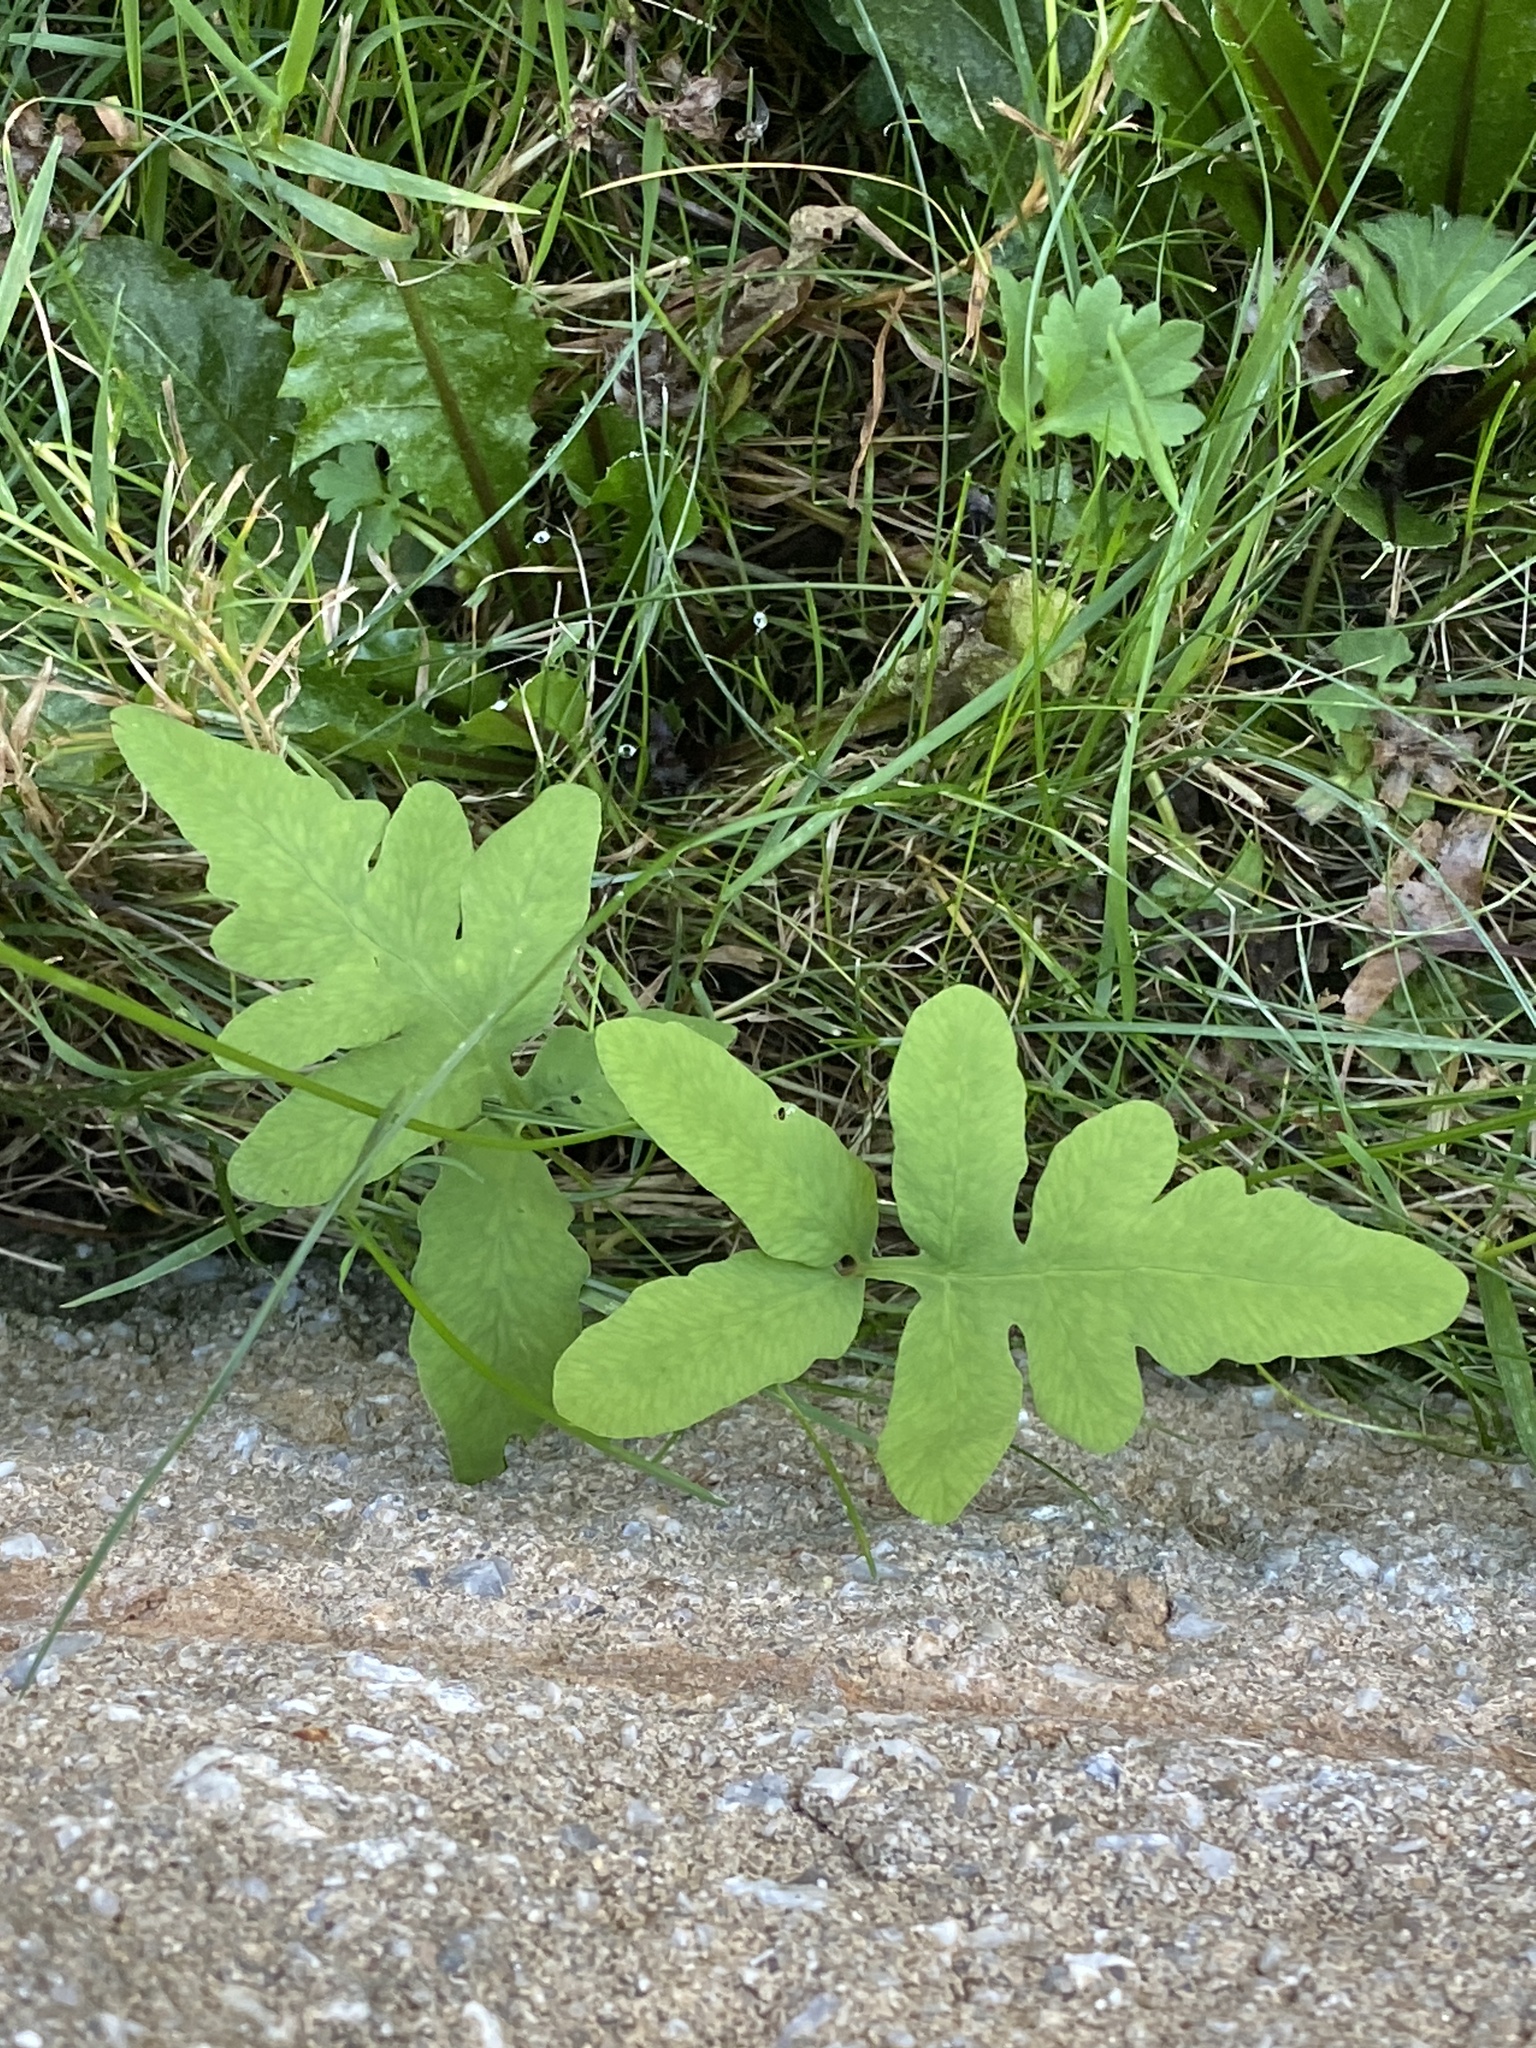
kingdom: Plantae
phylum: Tracheophyta
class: Polypodiopsida
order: Polypodiales
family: Onocleaceae
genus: Onoclea
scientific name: Onoclea sensibilis
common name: Sensitive fern
